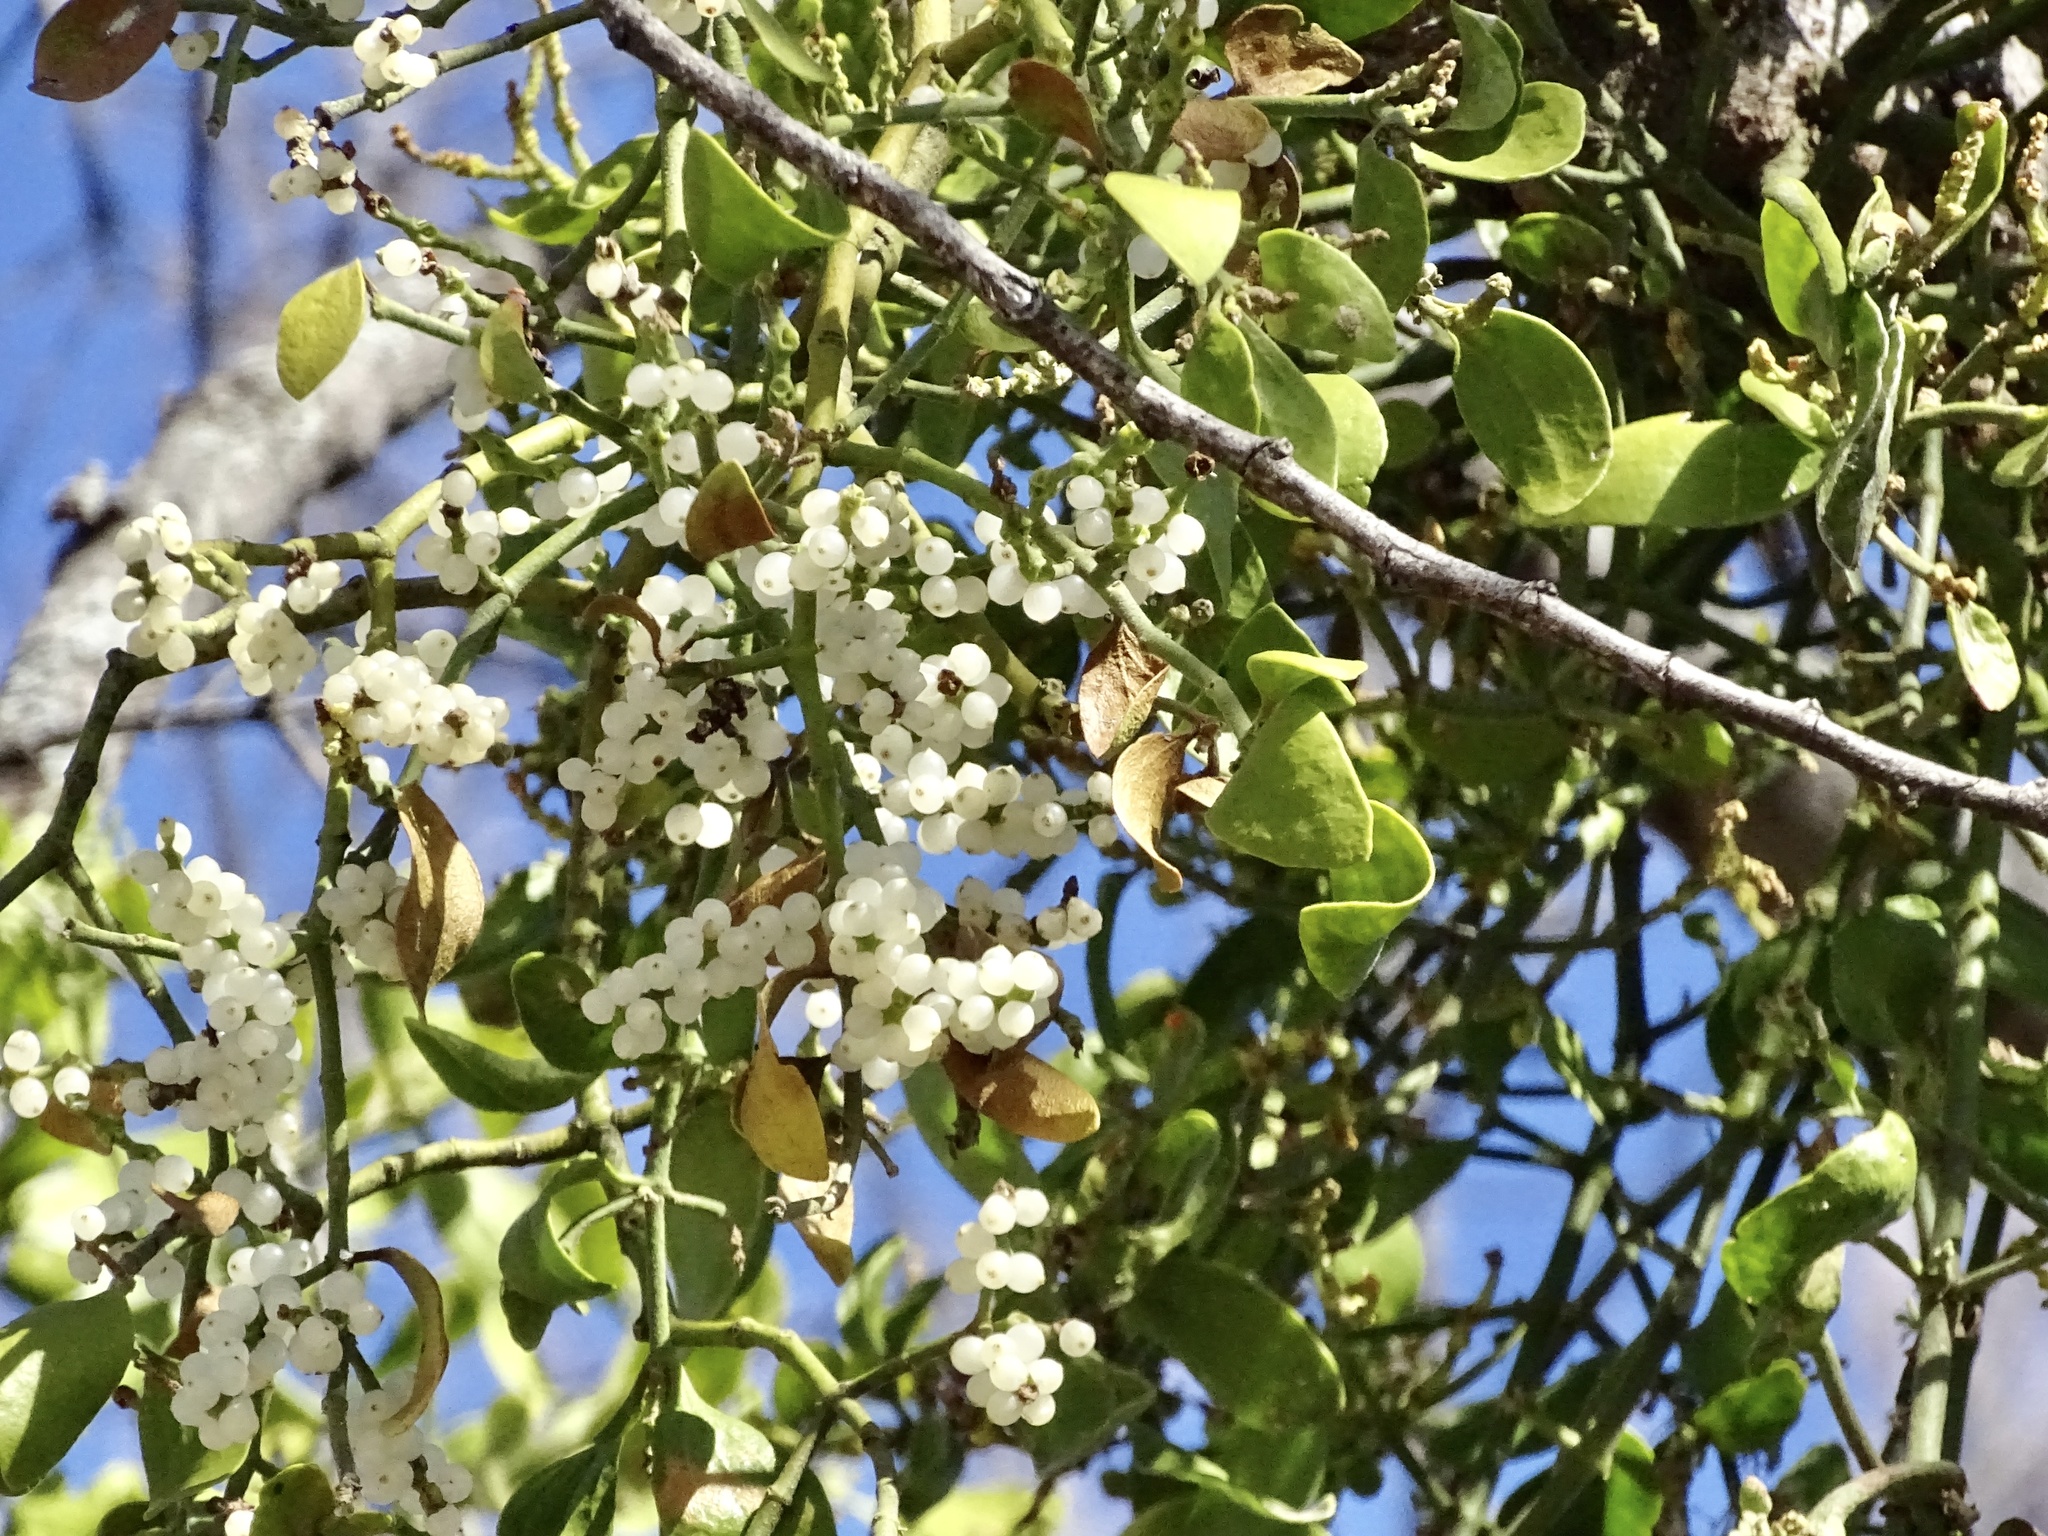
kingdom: Plantae
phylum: Tracheophyta
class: Magnoliopsida
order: Santalales
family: Viscaceae
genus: Phoradendron
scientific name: Phoradendron leucarpum
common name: Pacific mistletoe
